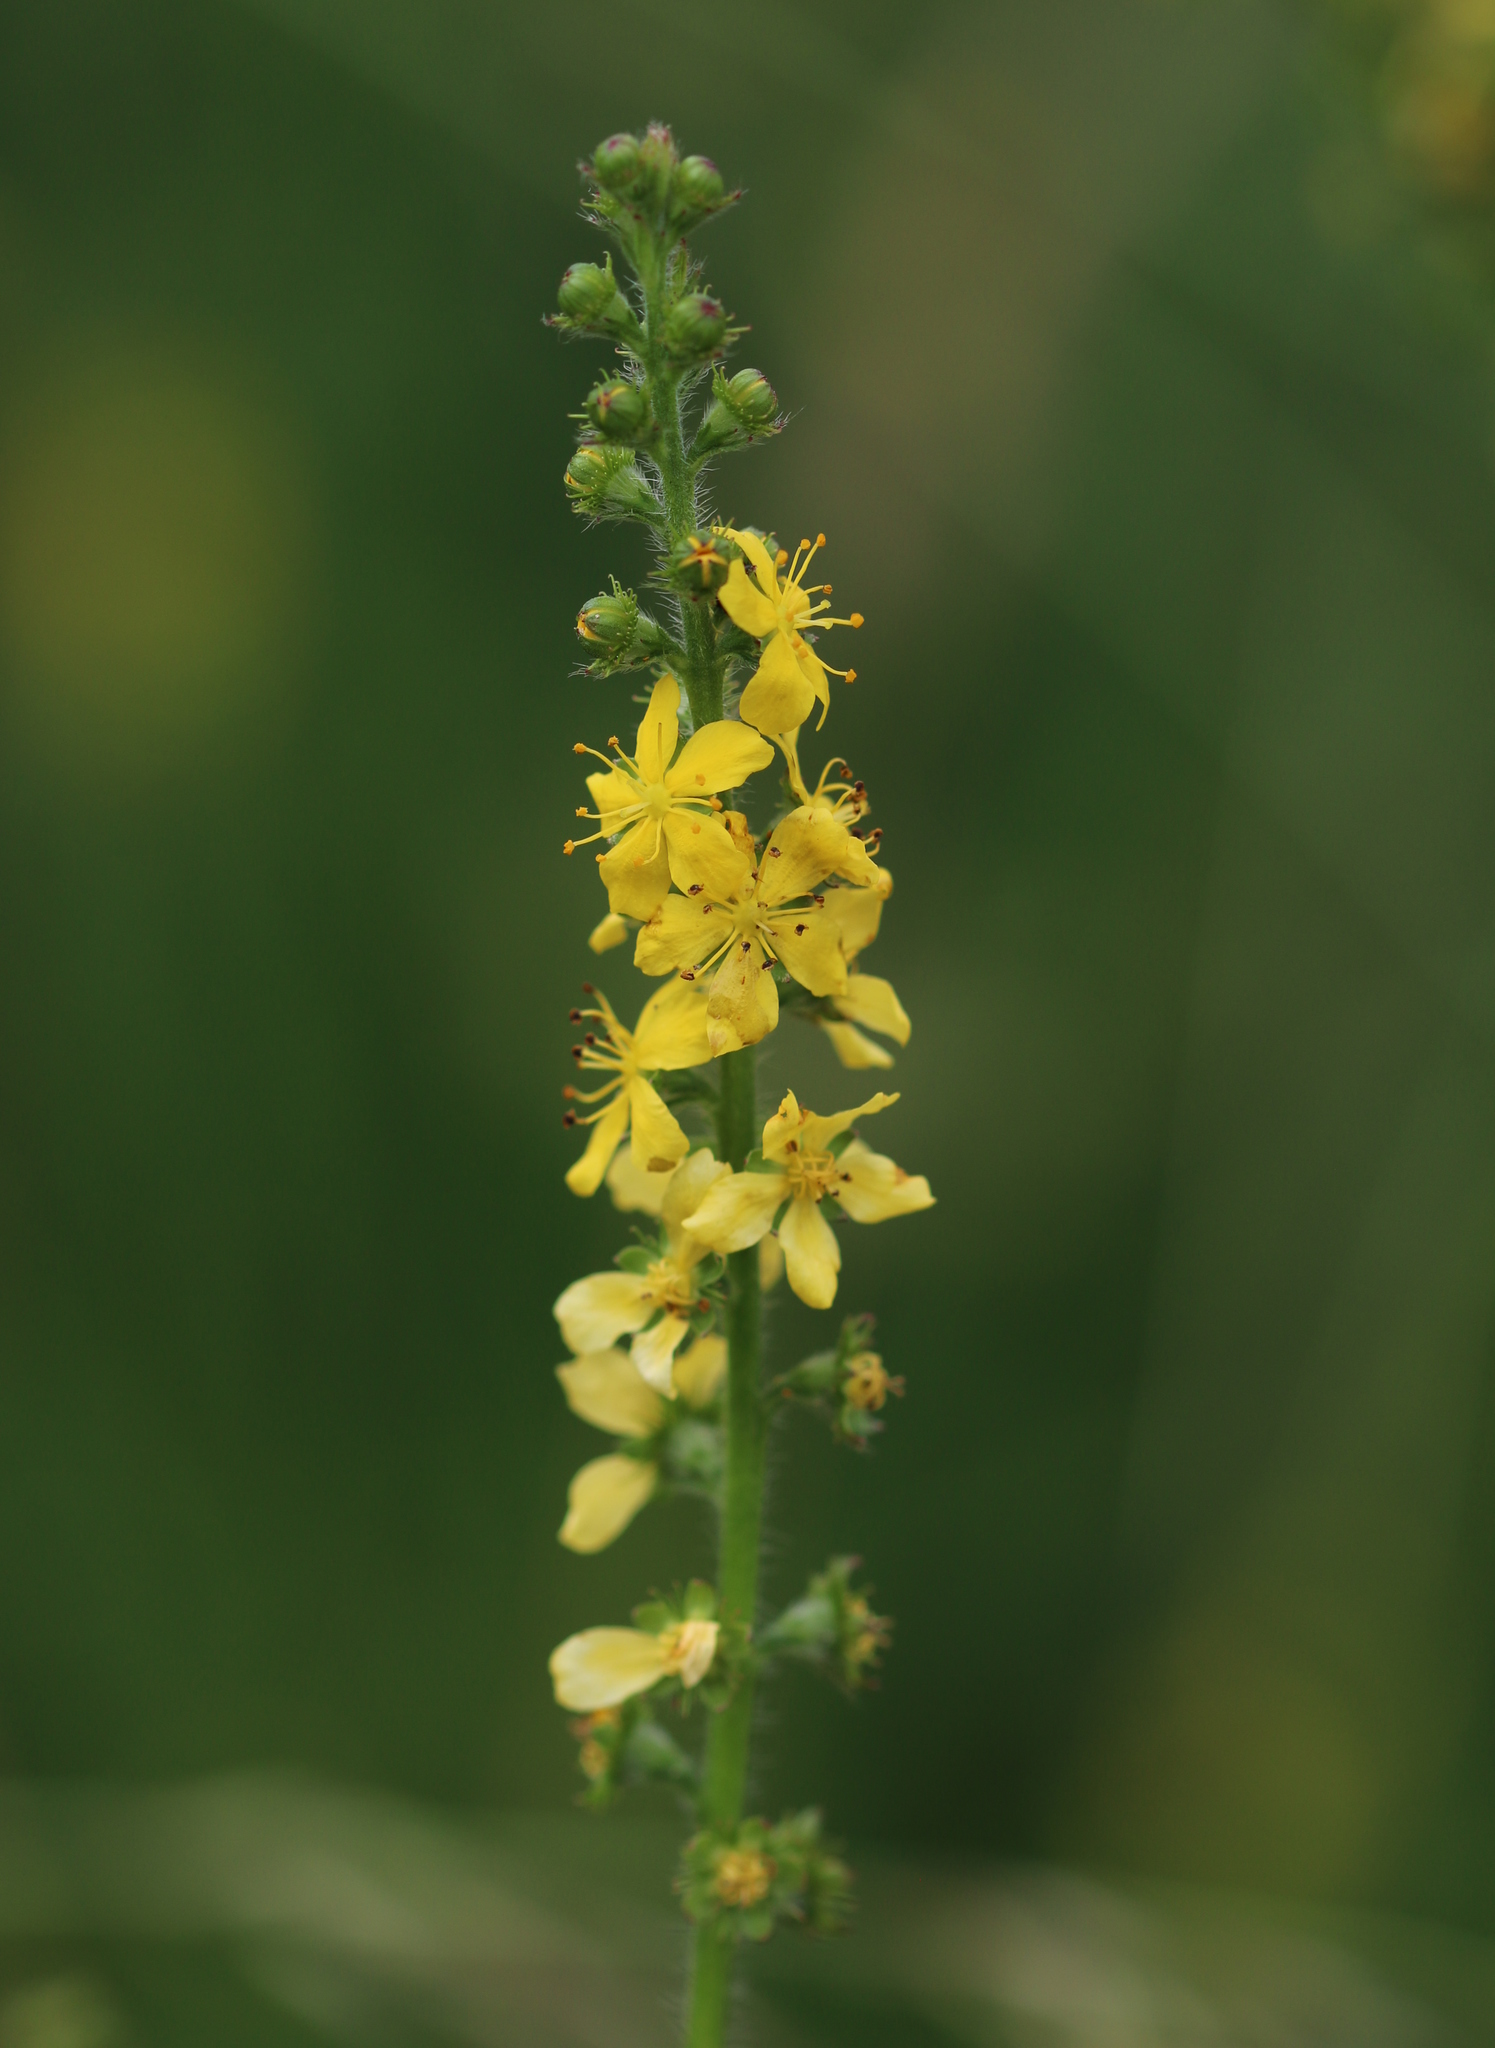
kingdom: Plantae
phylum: Tracheophyta
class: Magnoliopsida
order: Rosales
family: Rosaceae
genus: Agrimonia
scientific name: Agrimonia eupatoria
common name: Agrimony
